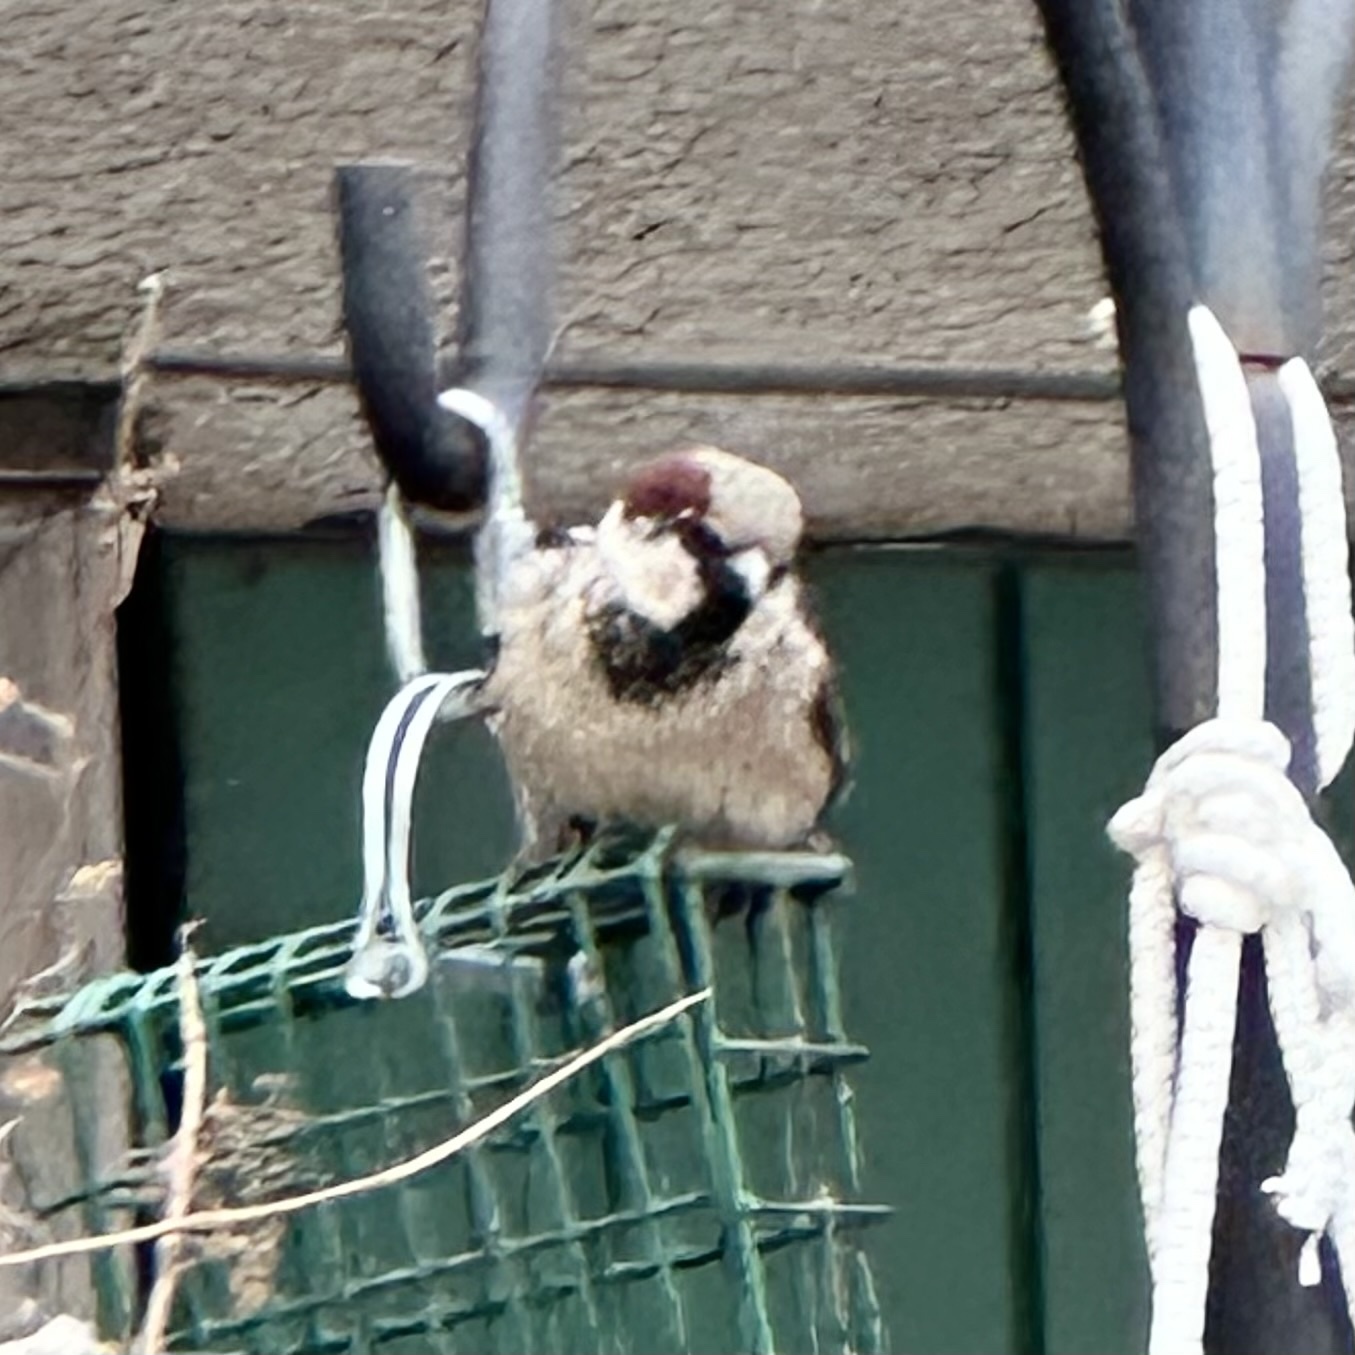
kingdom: Animalia
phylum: Chordata
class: Aves
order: Passeriformes
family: Passeridae
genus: Passer
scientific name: Passer domesticus
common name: House sparrow
